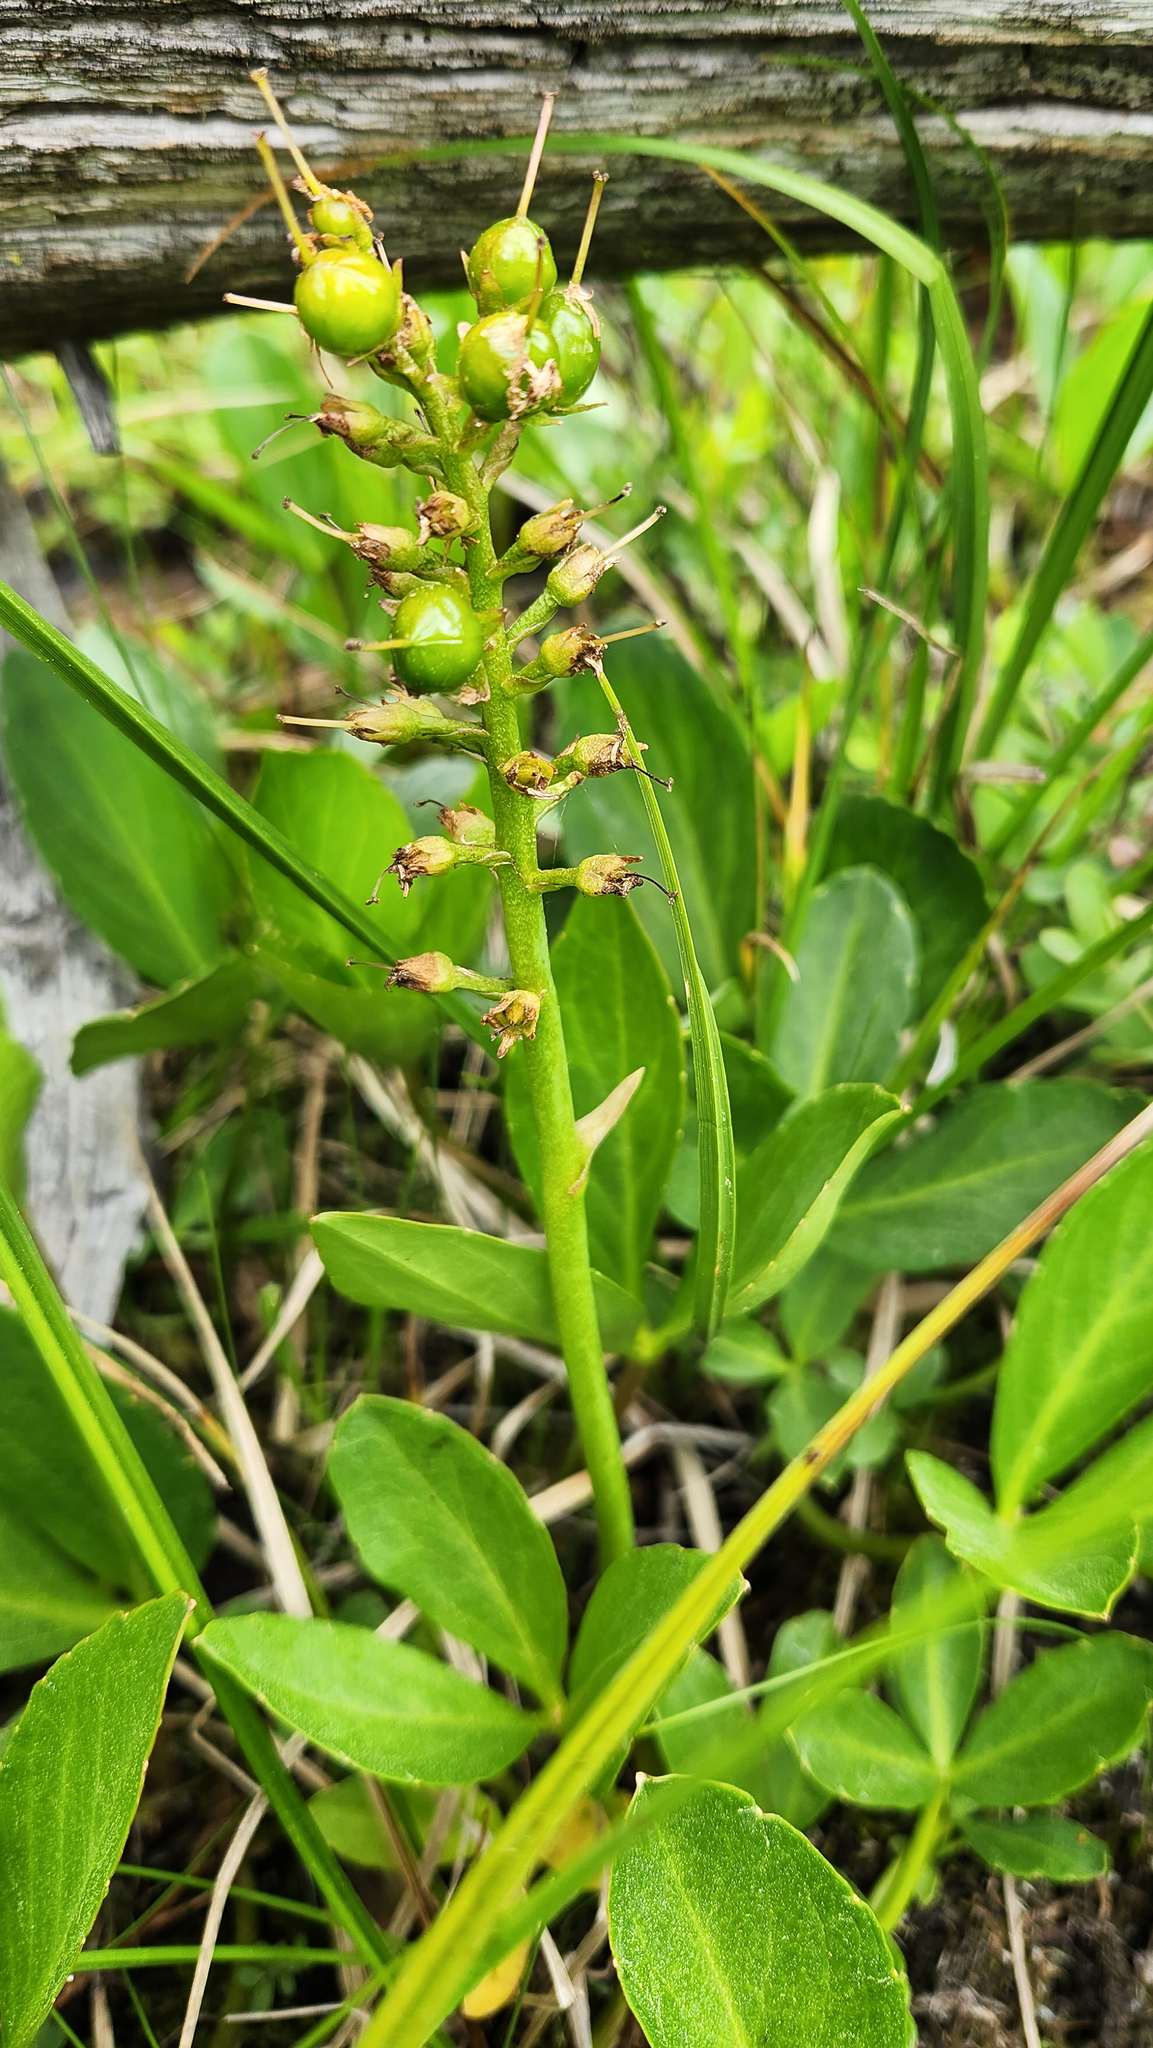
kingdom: Plantae
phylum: Tracheophyta
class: Magnoliopsida
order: Asterales
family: Menyanthaceae
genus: Menyanthes
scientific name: Menyanthes trifoliata
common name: Bogbean
